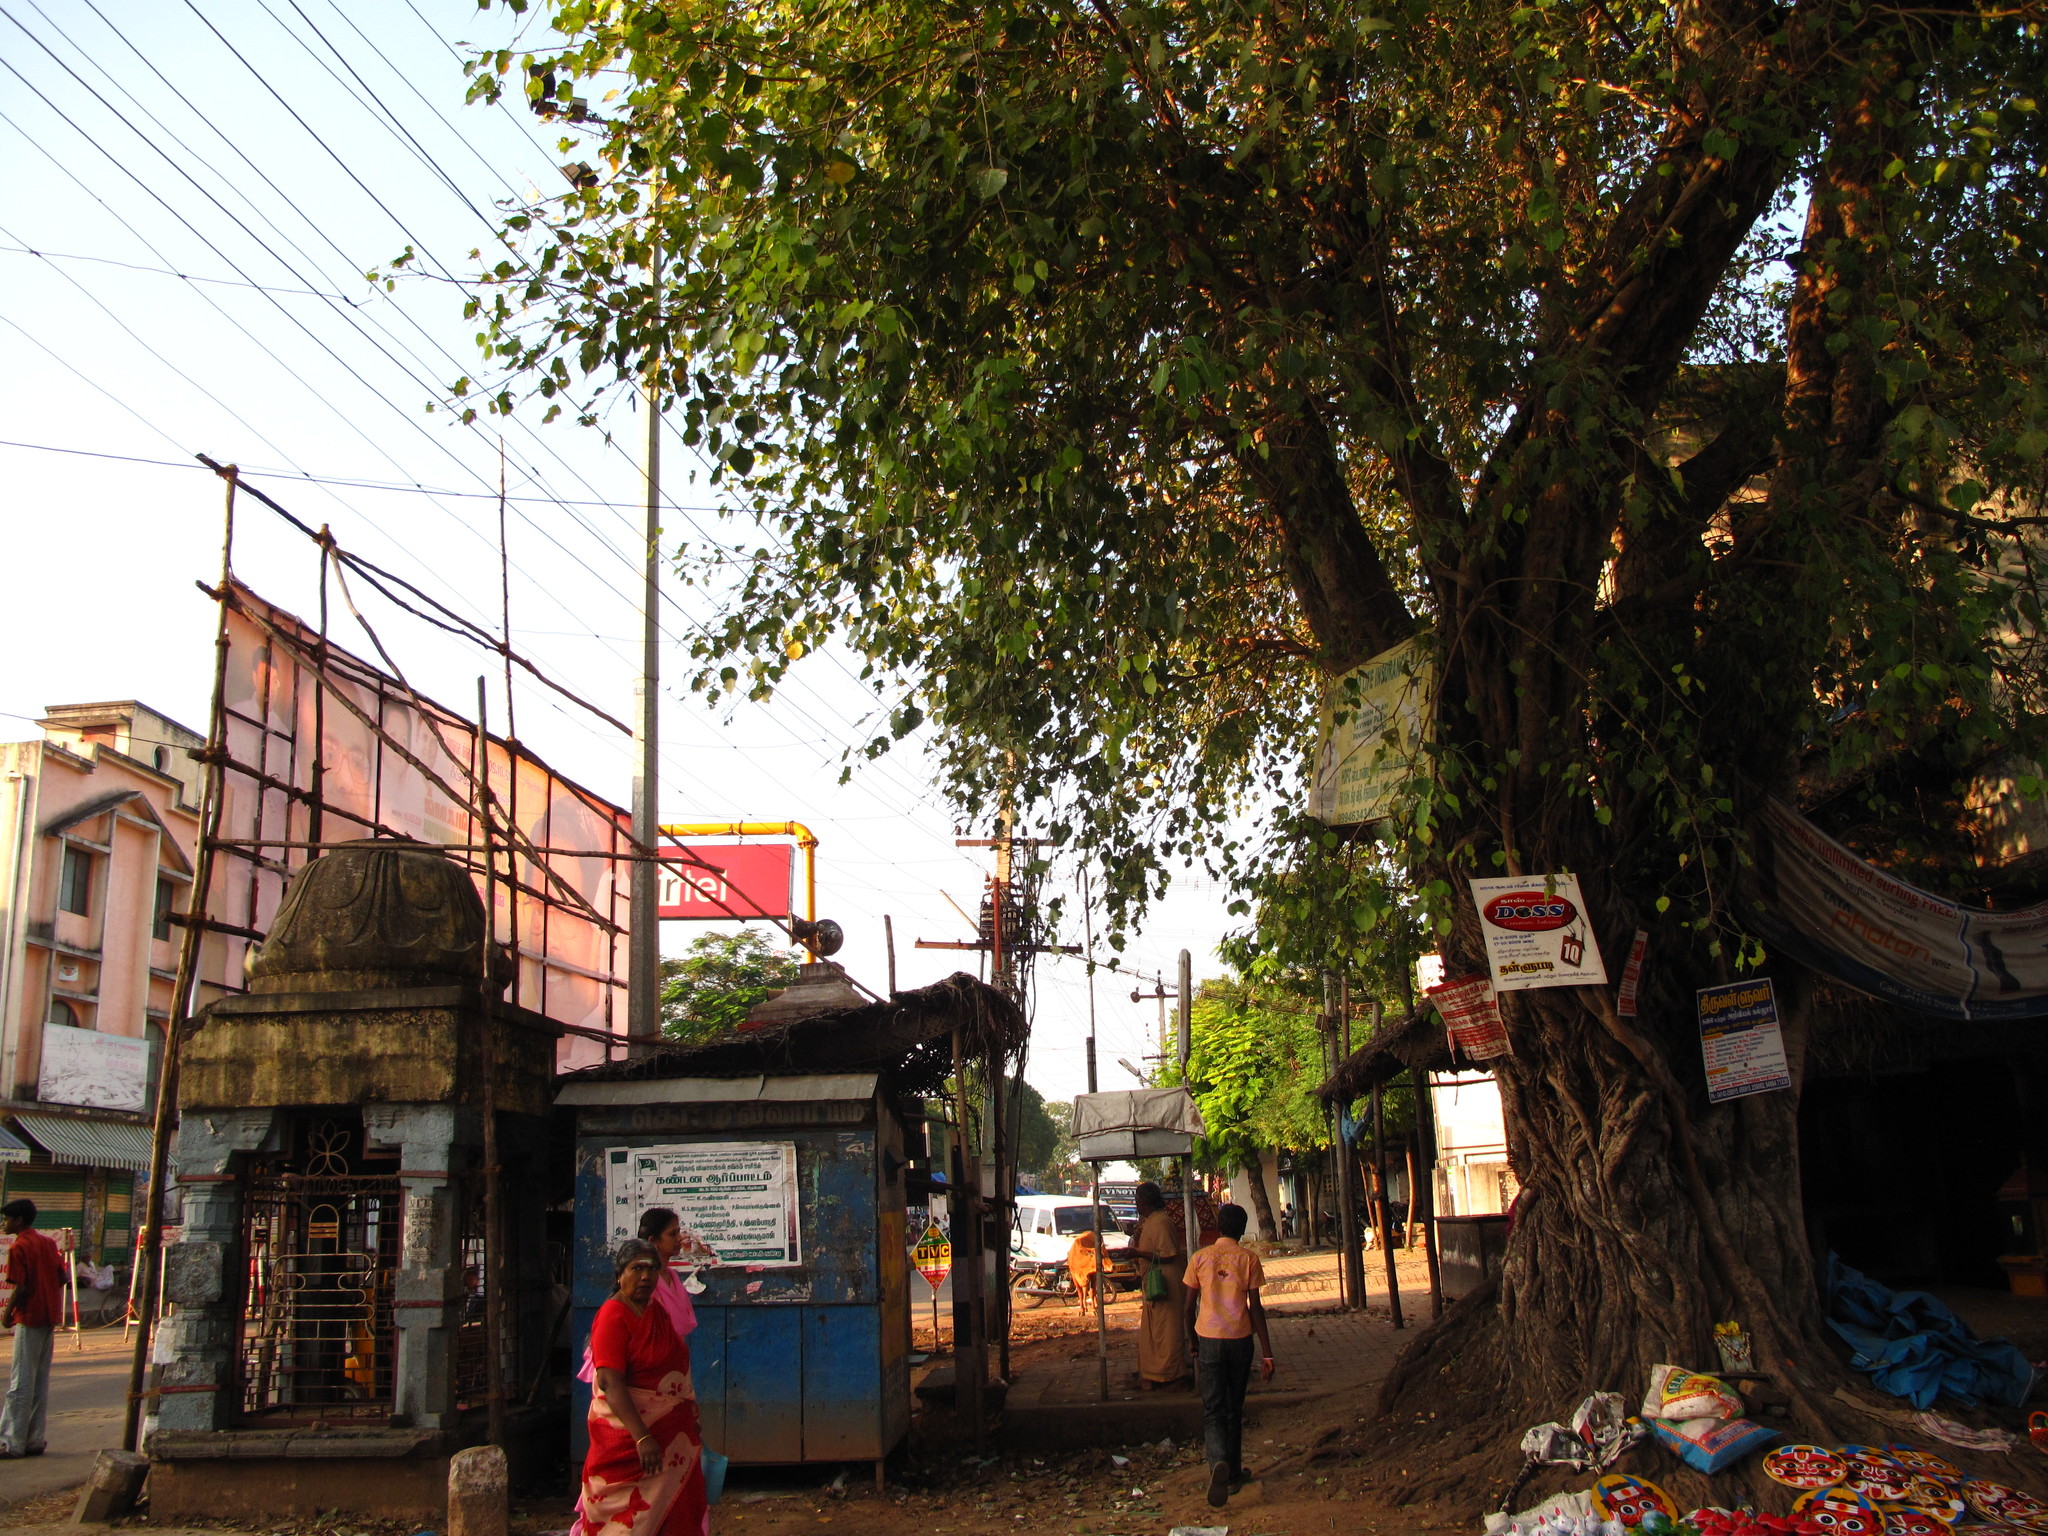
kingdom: Plantae
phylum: Tracheophyta
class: Magnoliopsida
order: Rosales
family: Moraceae
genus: Ficus
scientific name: Ficus religiosa
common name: Bodhi tree
